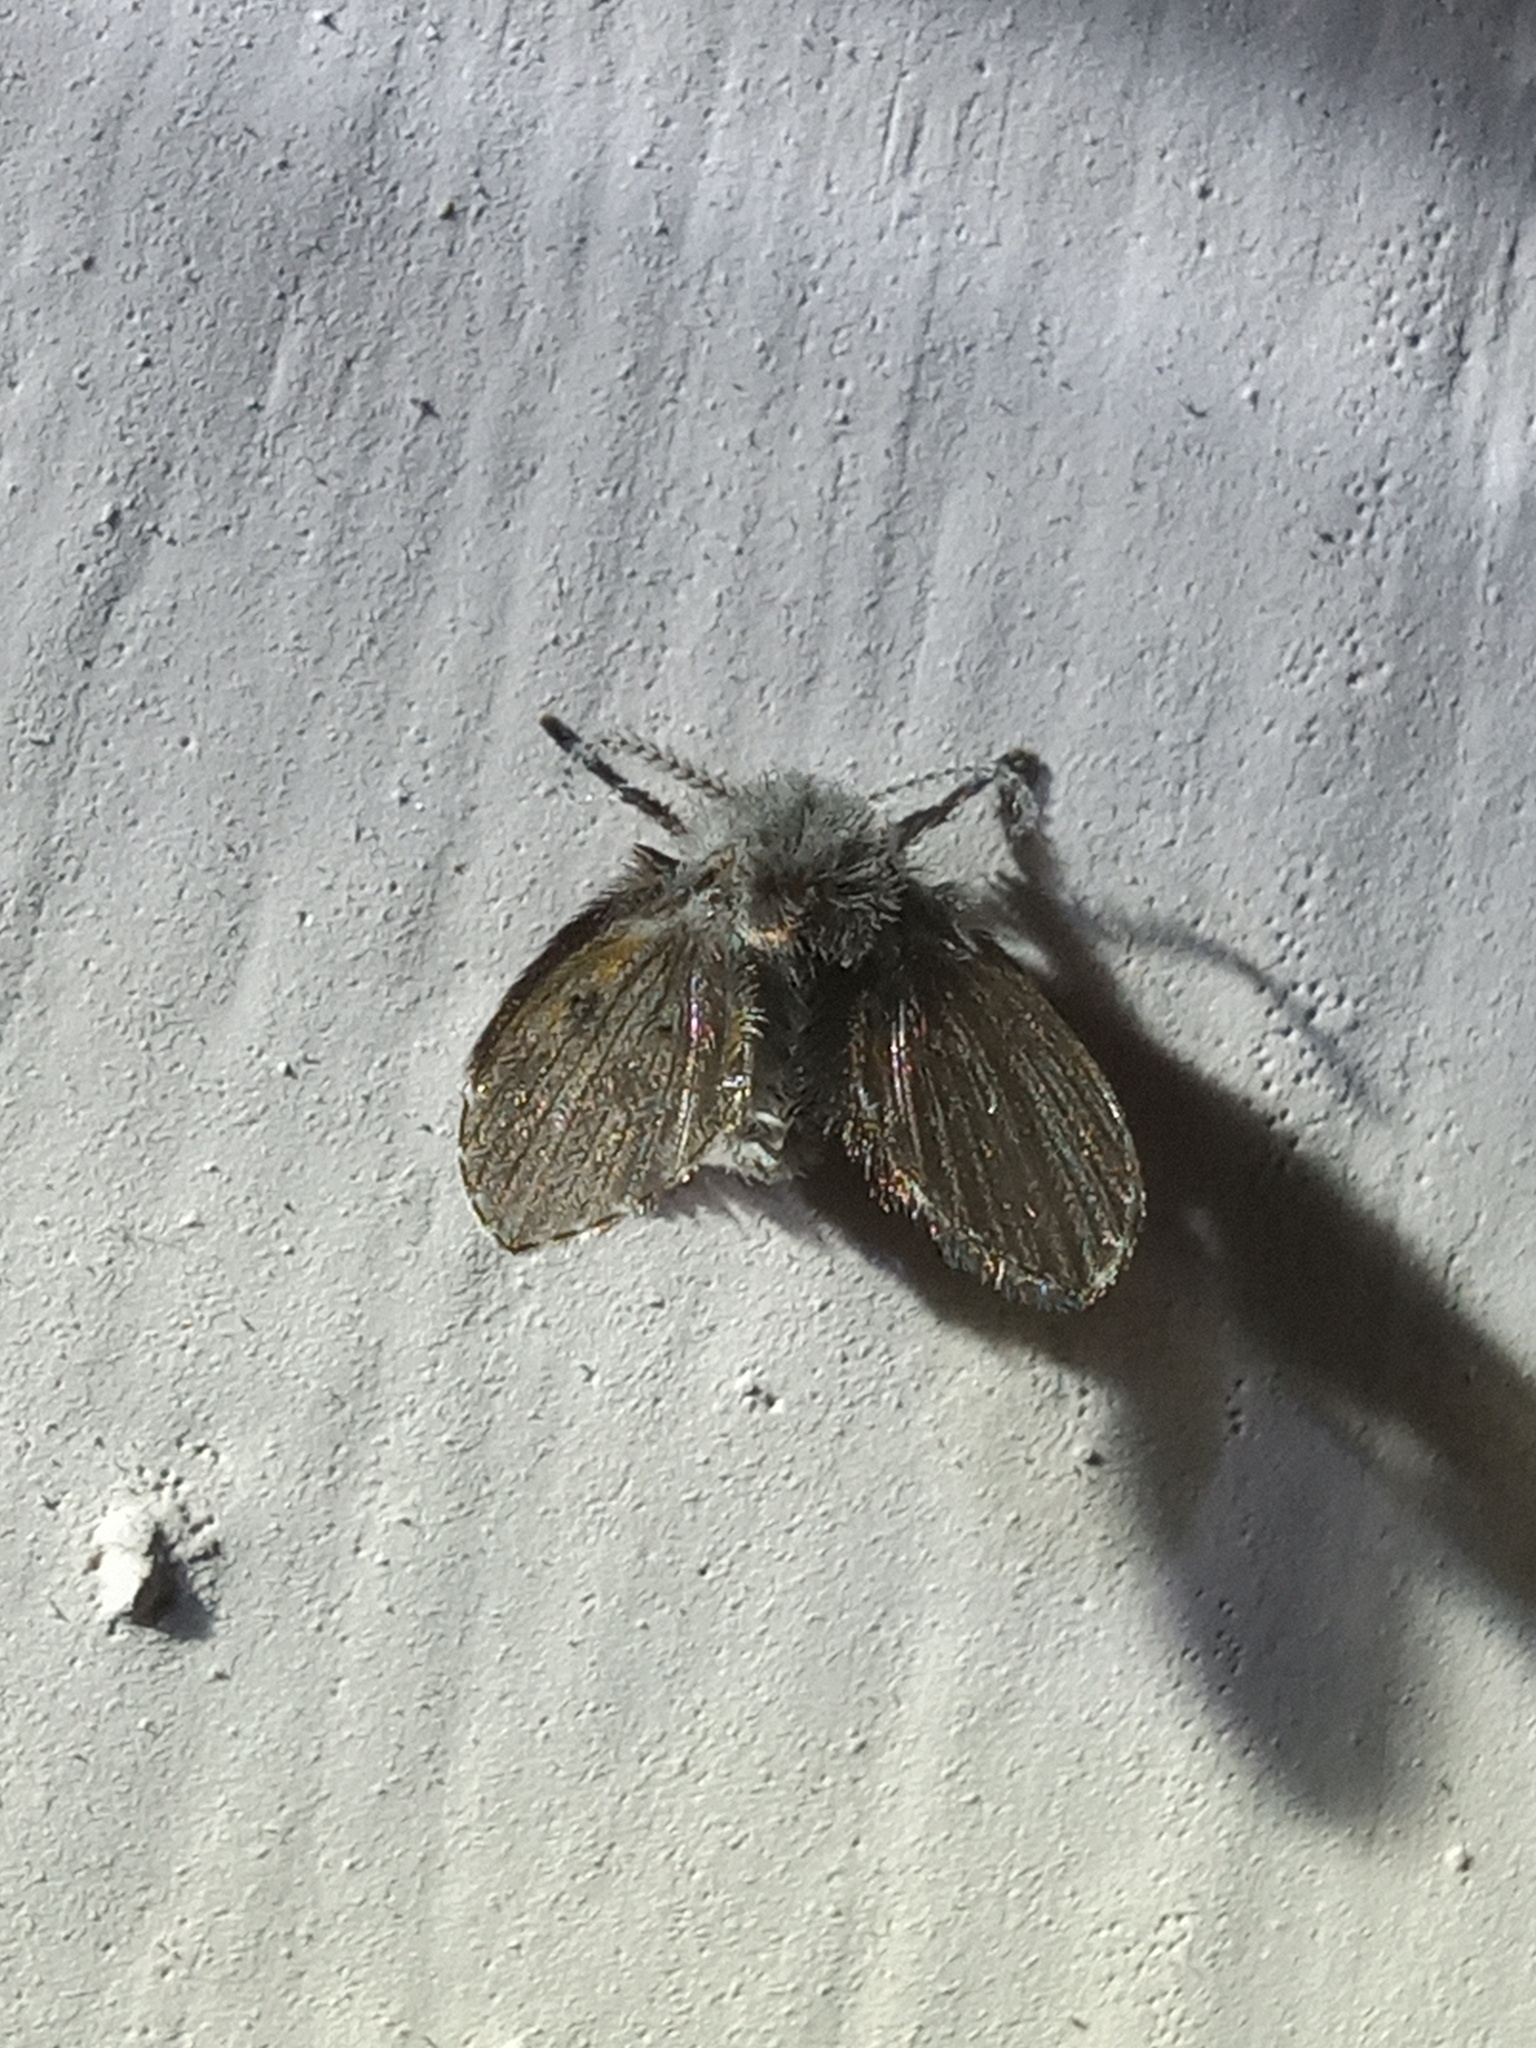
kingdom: Animalia
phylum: Arthropoda
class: Insecta
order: Diptera
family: Psychodidae
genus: Clogmia
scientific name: Clogmia albipunctatus
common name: White-spotted moth fly
